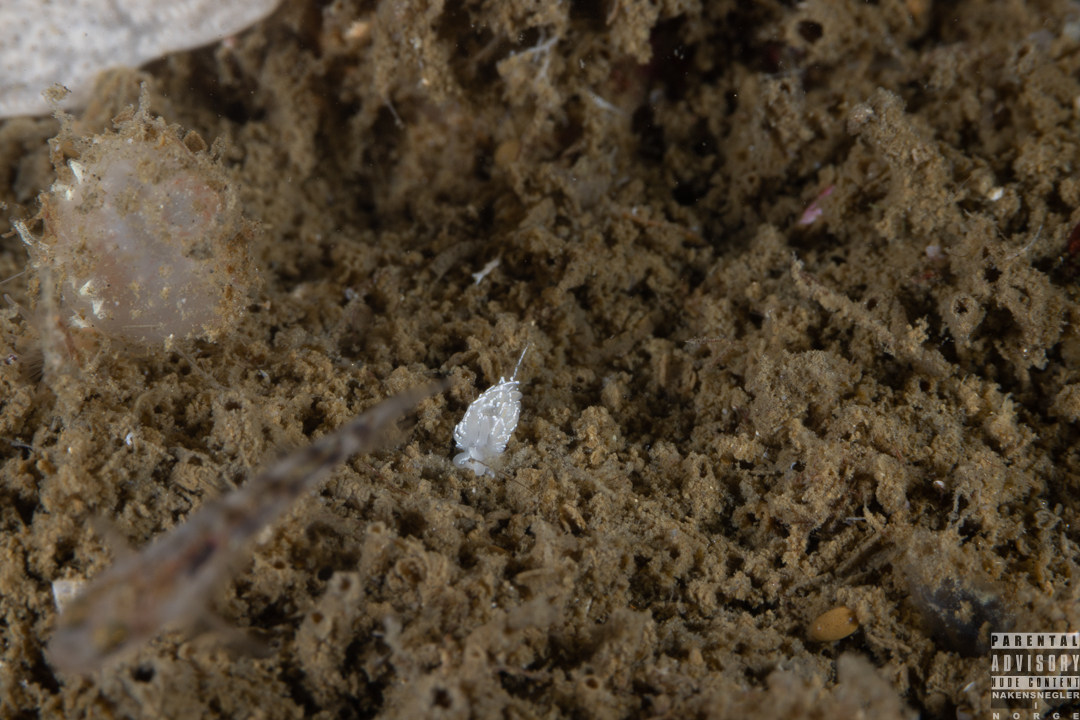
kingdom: Animalia
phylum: Mollusca
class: Gastropoda
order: Nudibranchia
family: Facelinidae
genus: Favorinus
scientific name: Favorinus blianus
